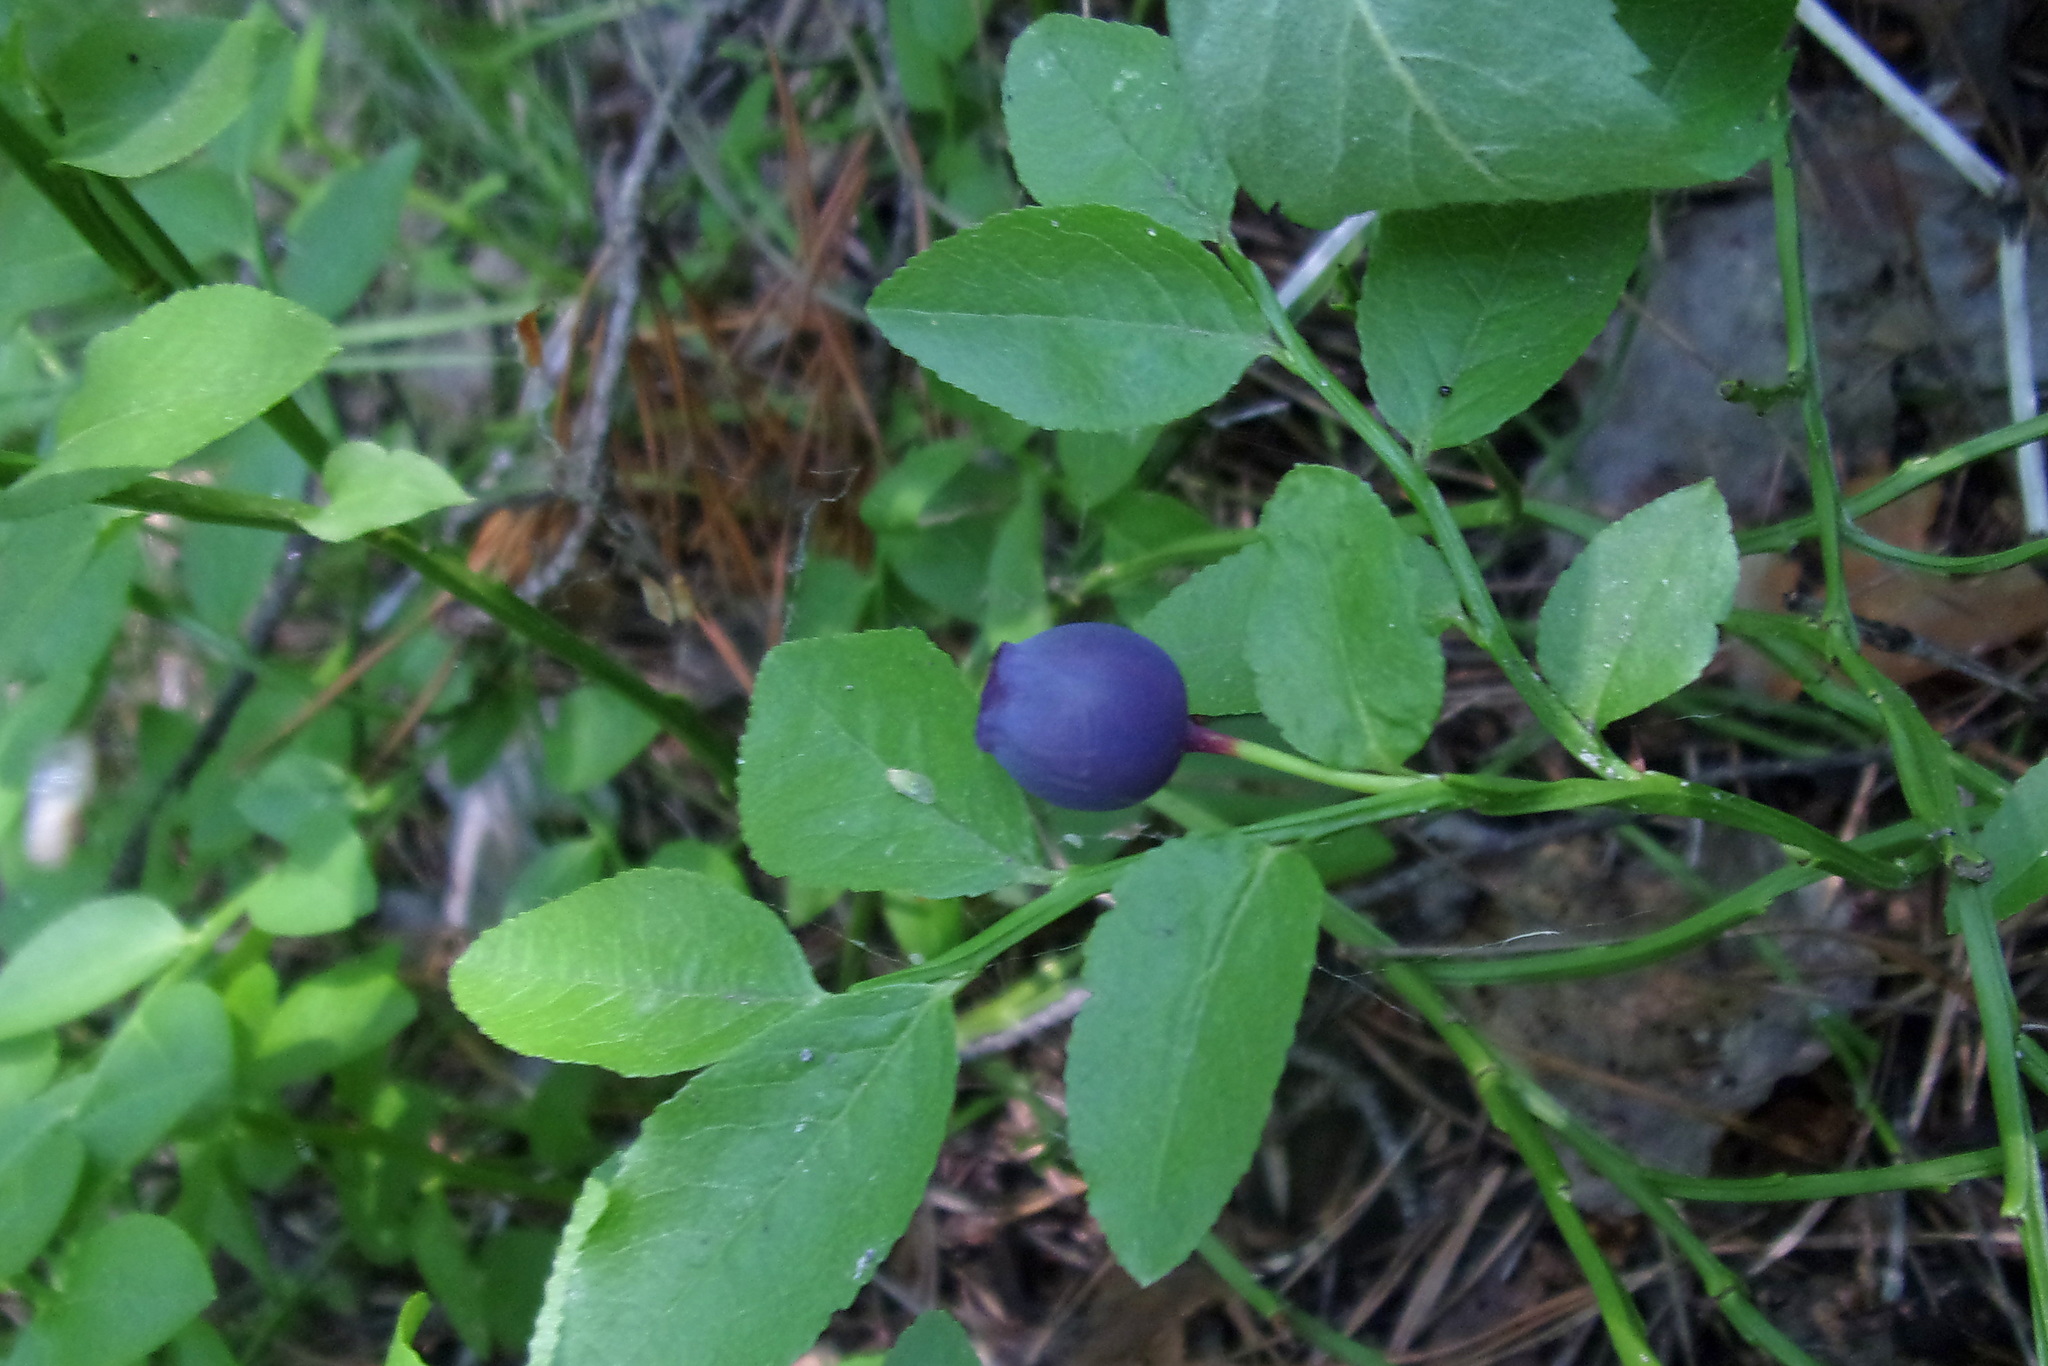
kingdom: Plantae
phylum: Tracheophyta
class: Magnoliopsida
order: Ericales
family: Ericaceae
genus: Vaccinium
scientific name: Vaccinium myrtillus
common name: Bilberry
